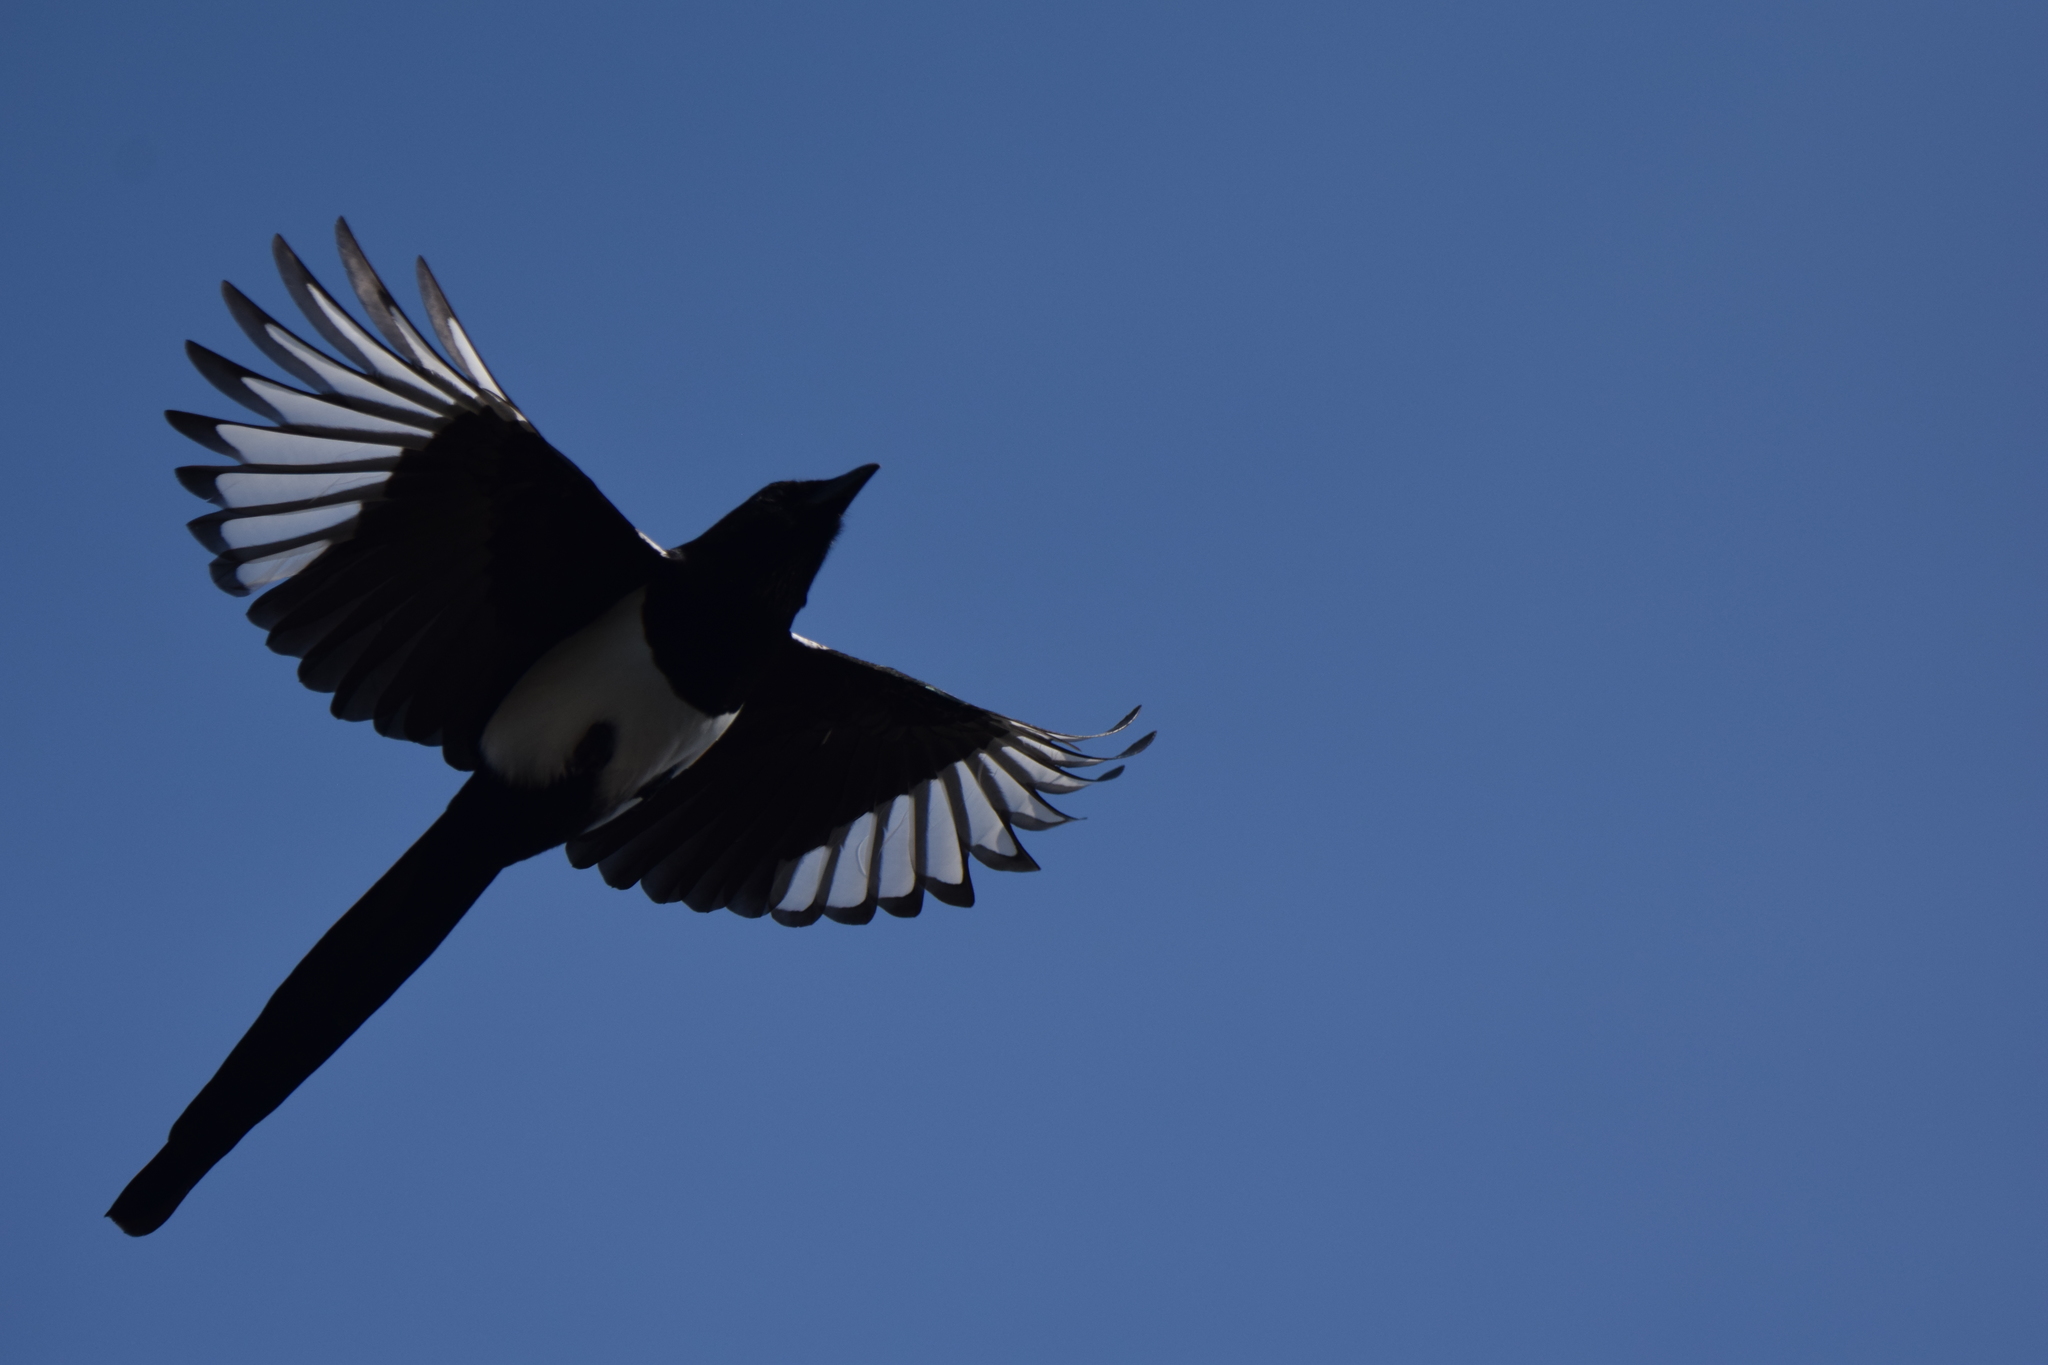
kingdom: Animalia
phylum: Chordata
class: Aves
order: Passeriformes
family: Corvidae
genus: Pica
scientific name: Pica pica
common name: Eurasian magpie
